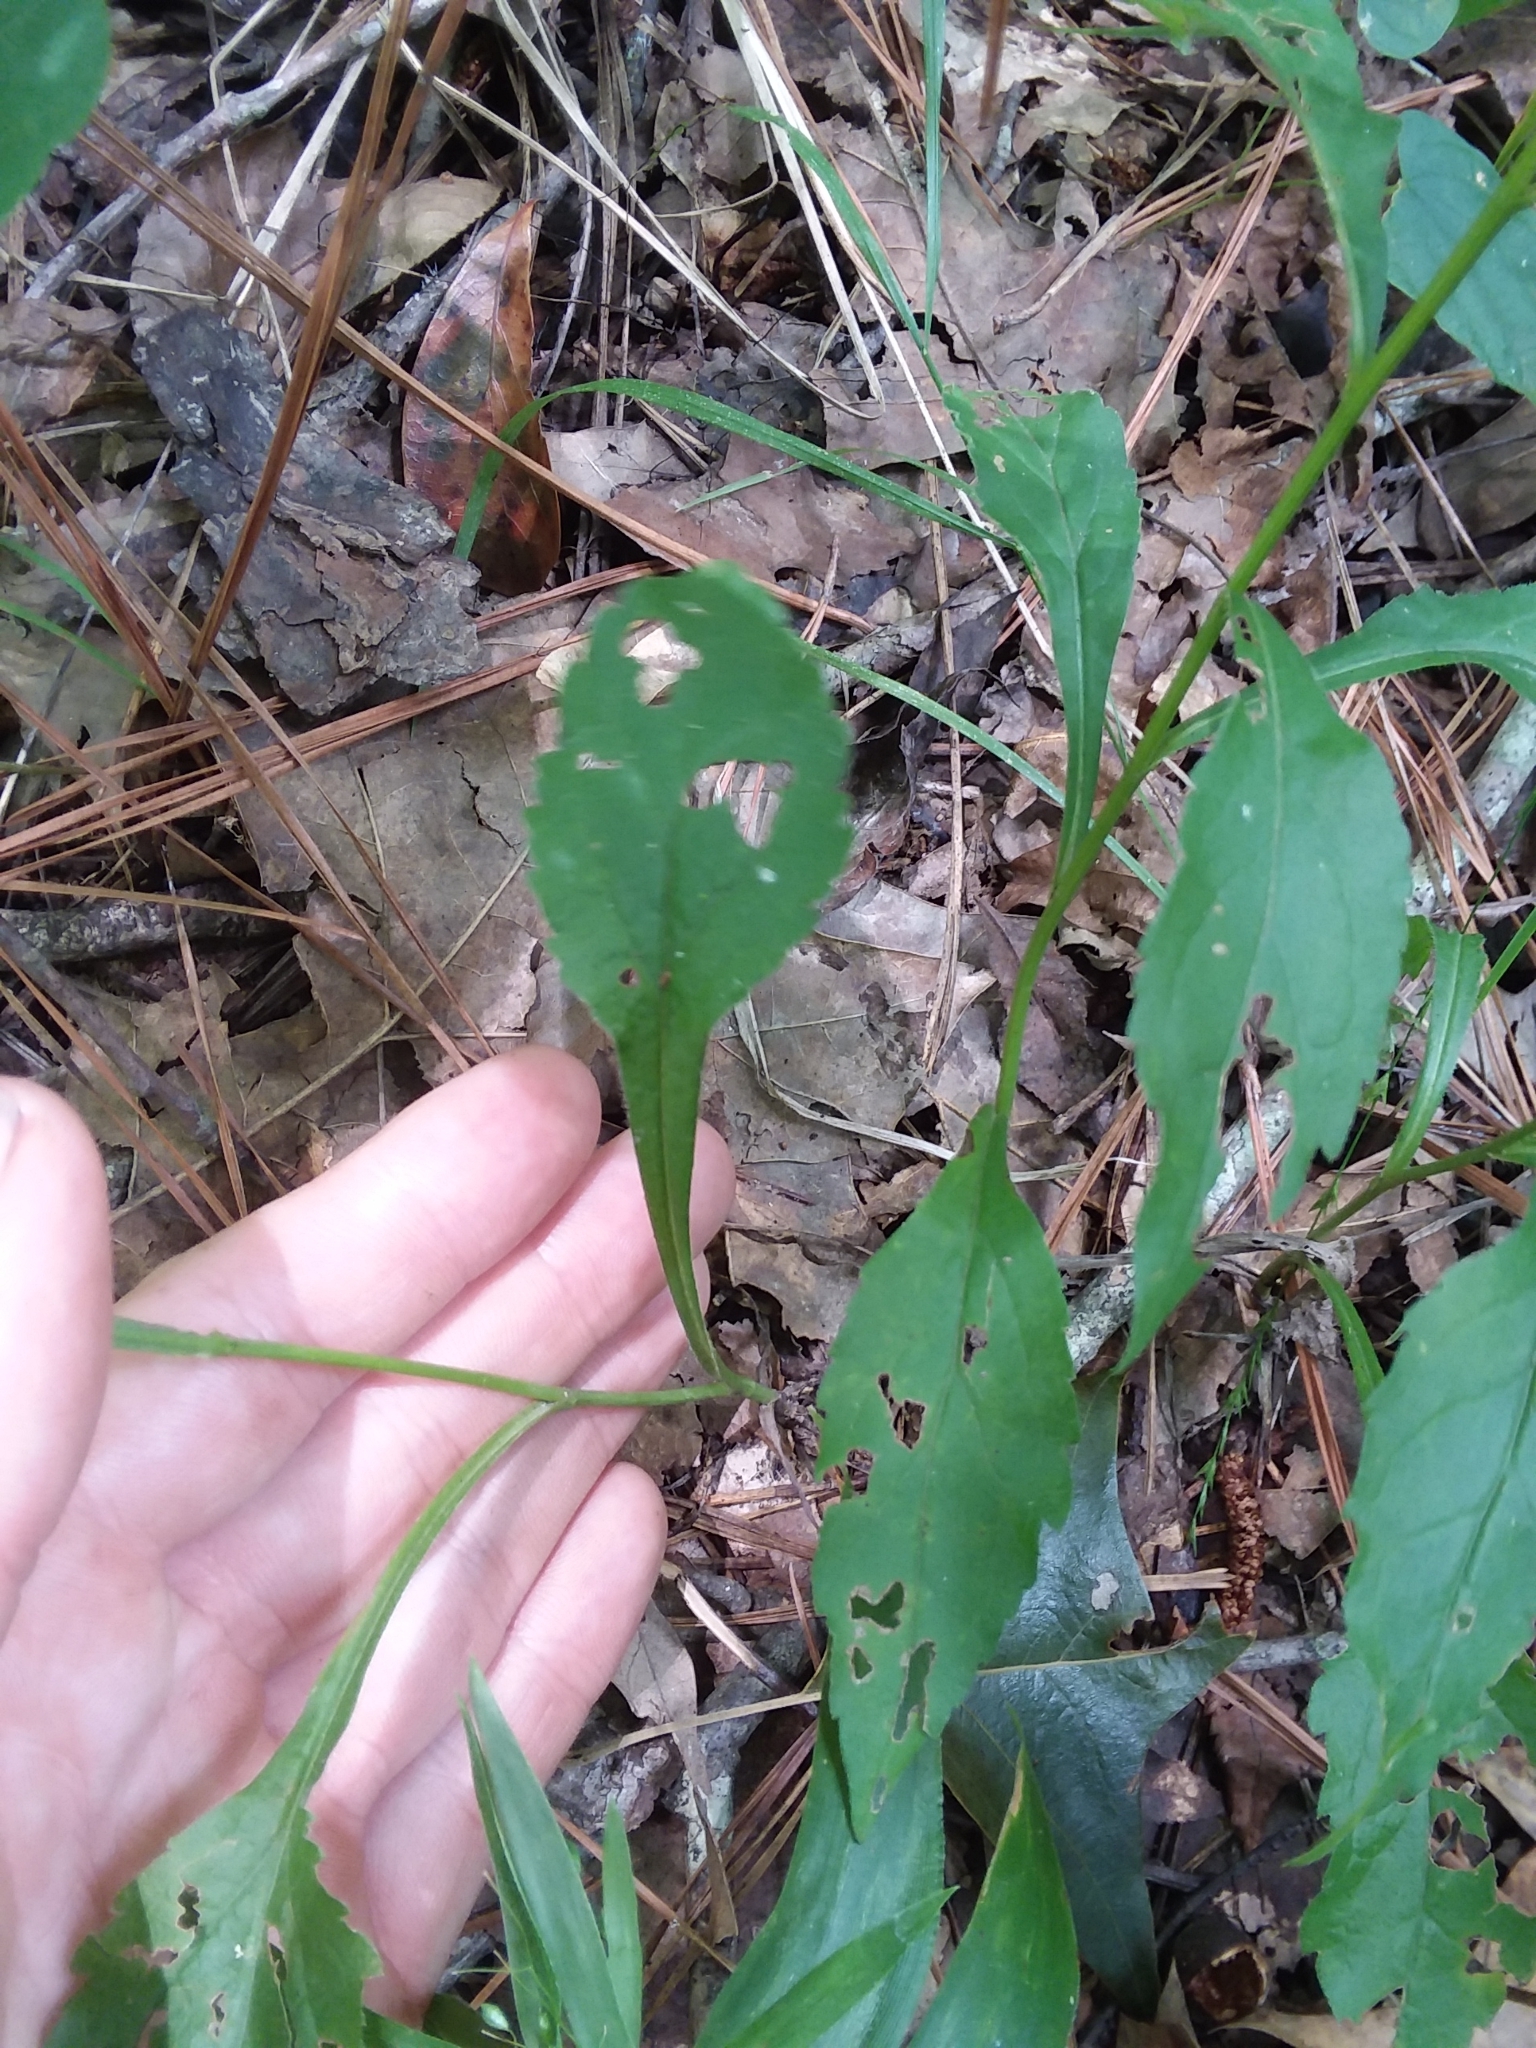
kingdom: Plantae
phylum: Tracheophyta
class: Magnoliopsida
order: Asterales
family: Asteraceae
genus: Solidago
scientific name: Solidago boottii
